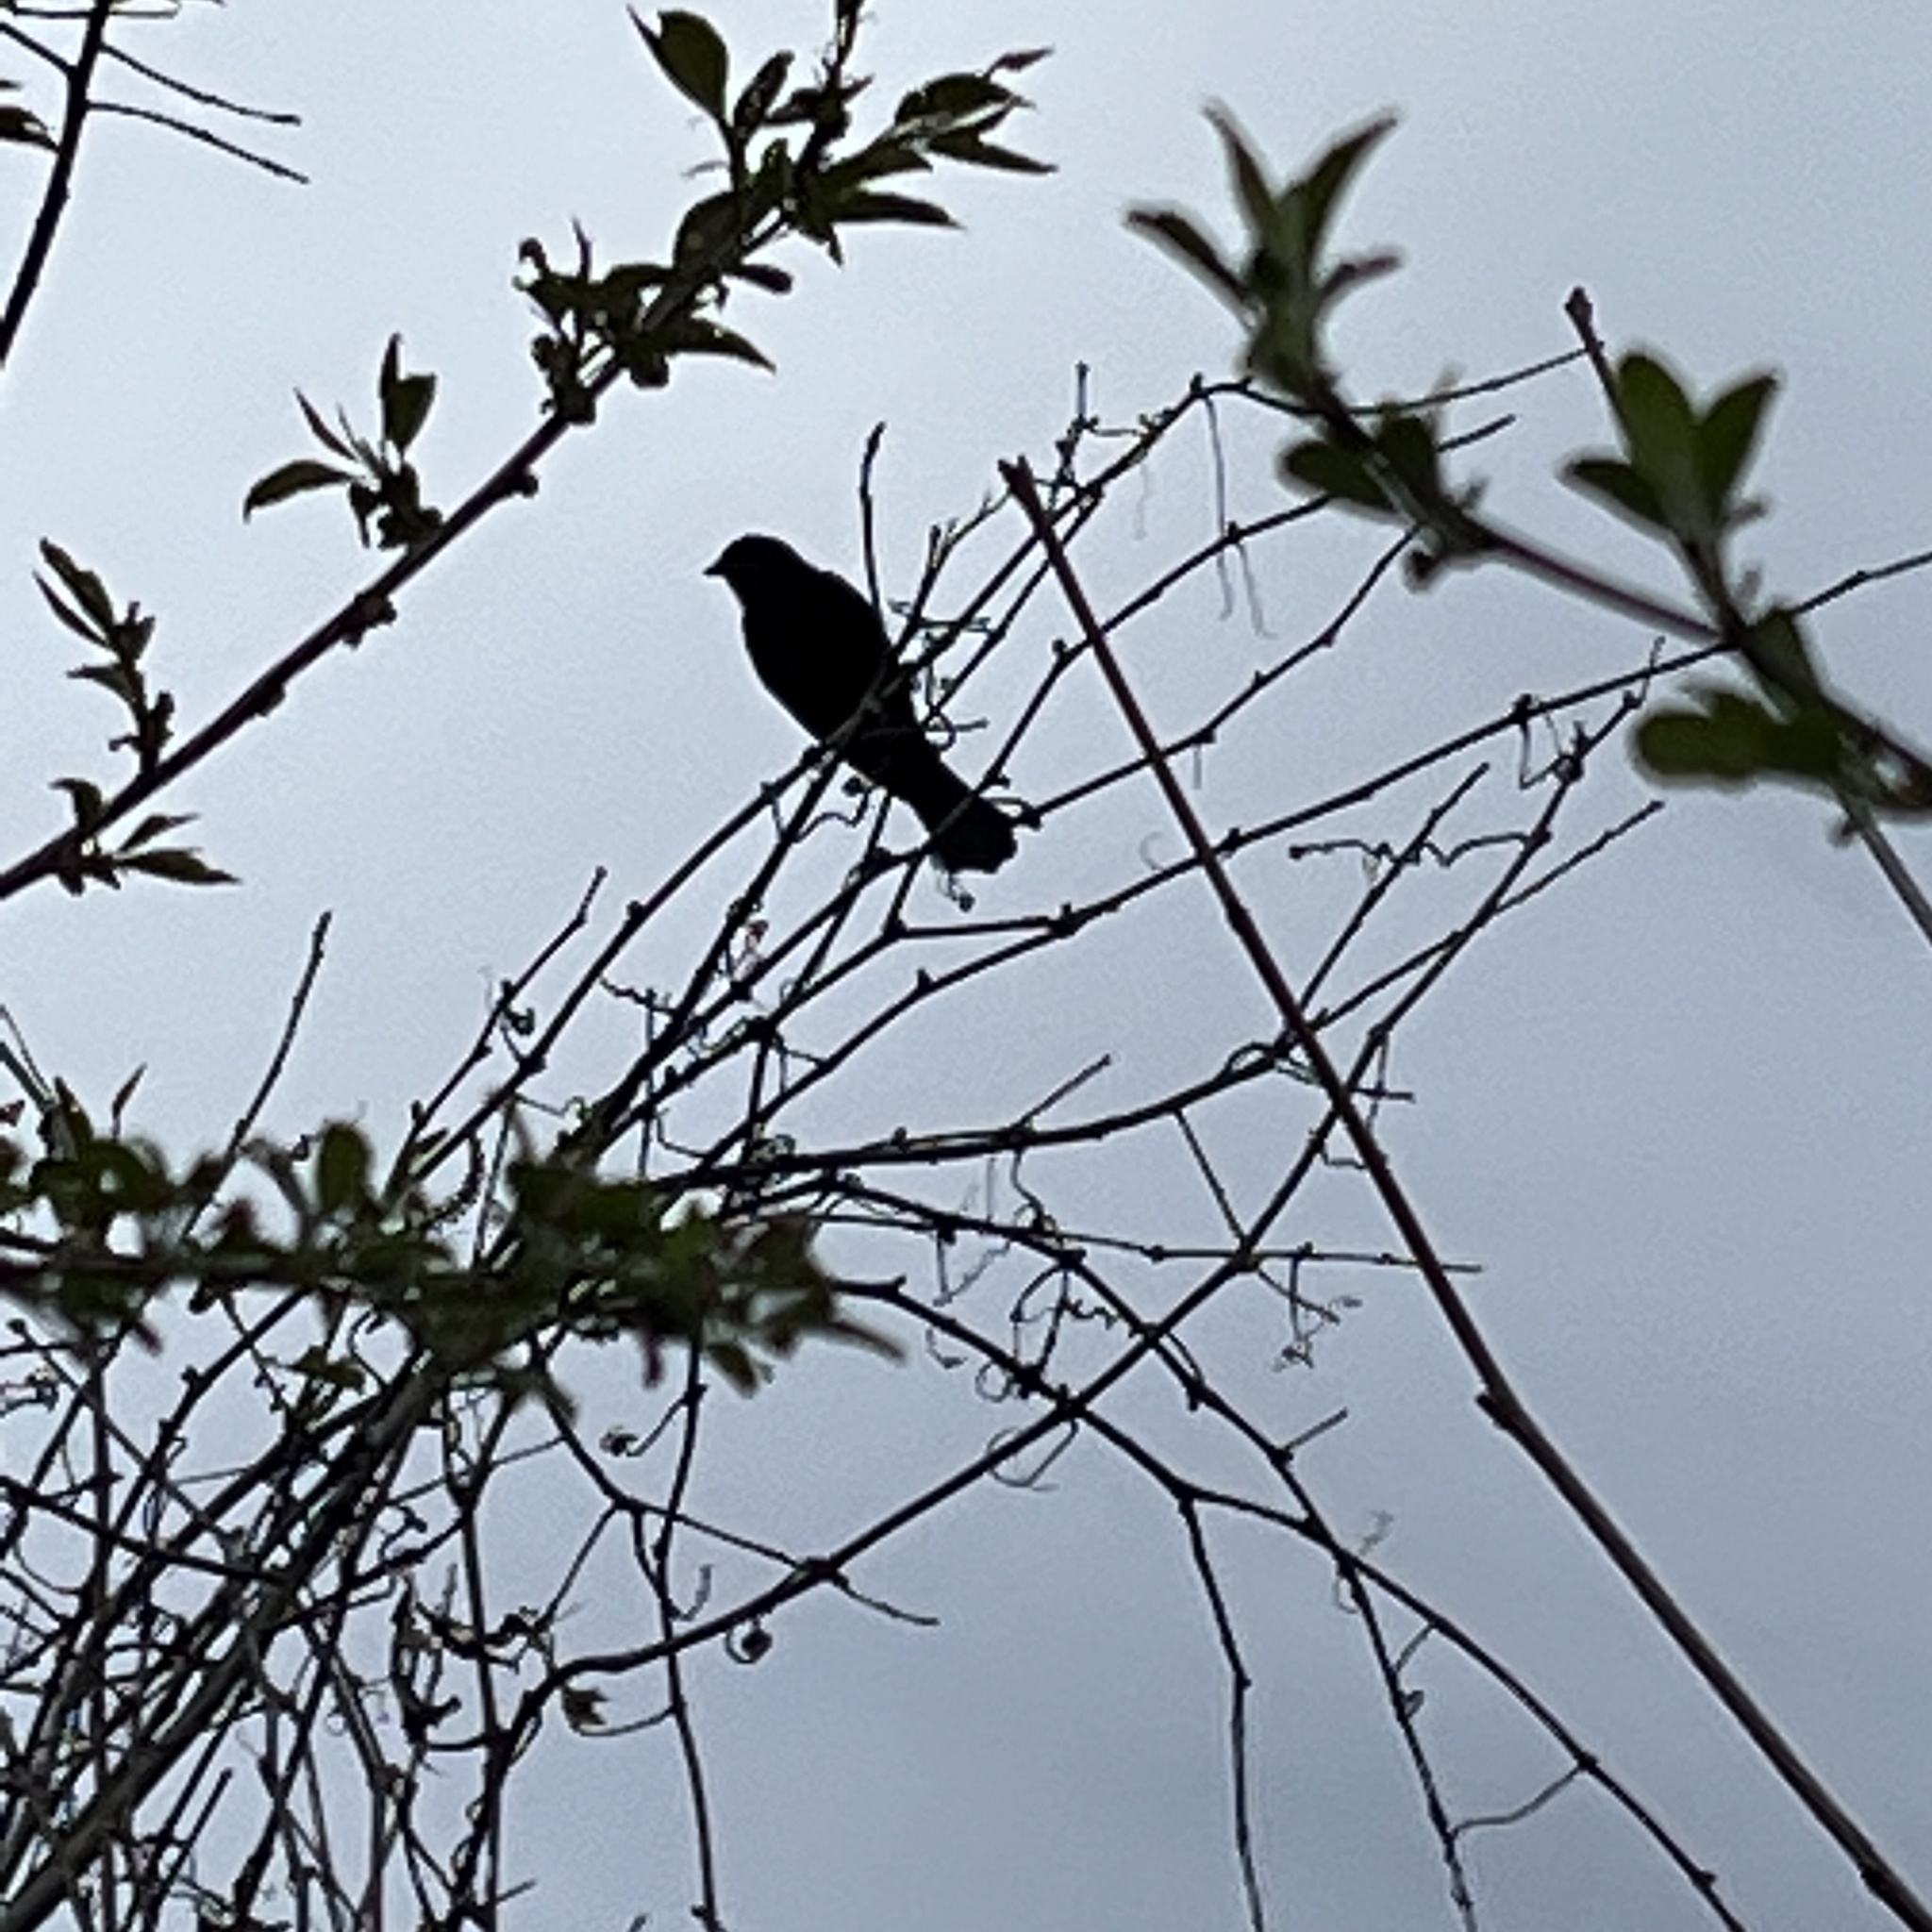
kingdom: Animalia
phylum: Chordata
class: Aves
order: Passeriformes
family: Icteridae
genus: Agelaius
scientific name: Agelaius phoeniceus
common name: Red-winged blackbird
